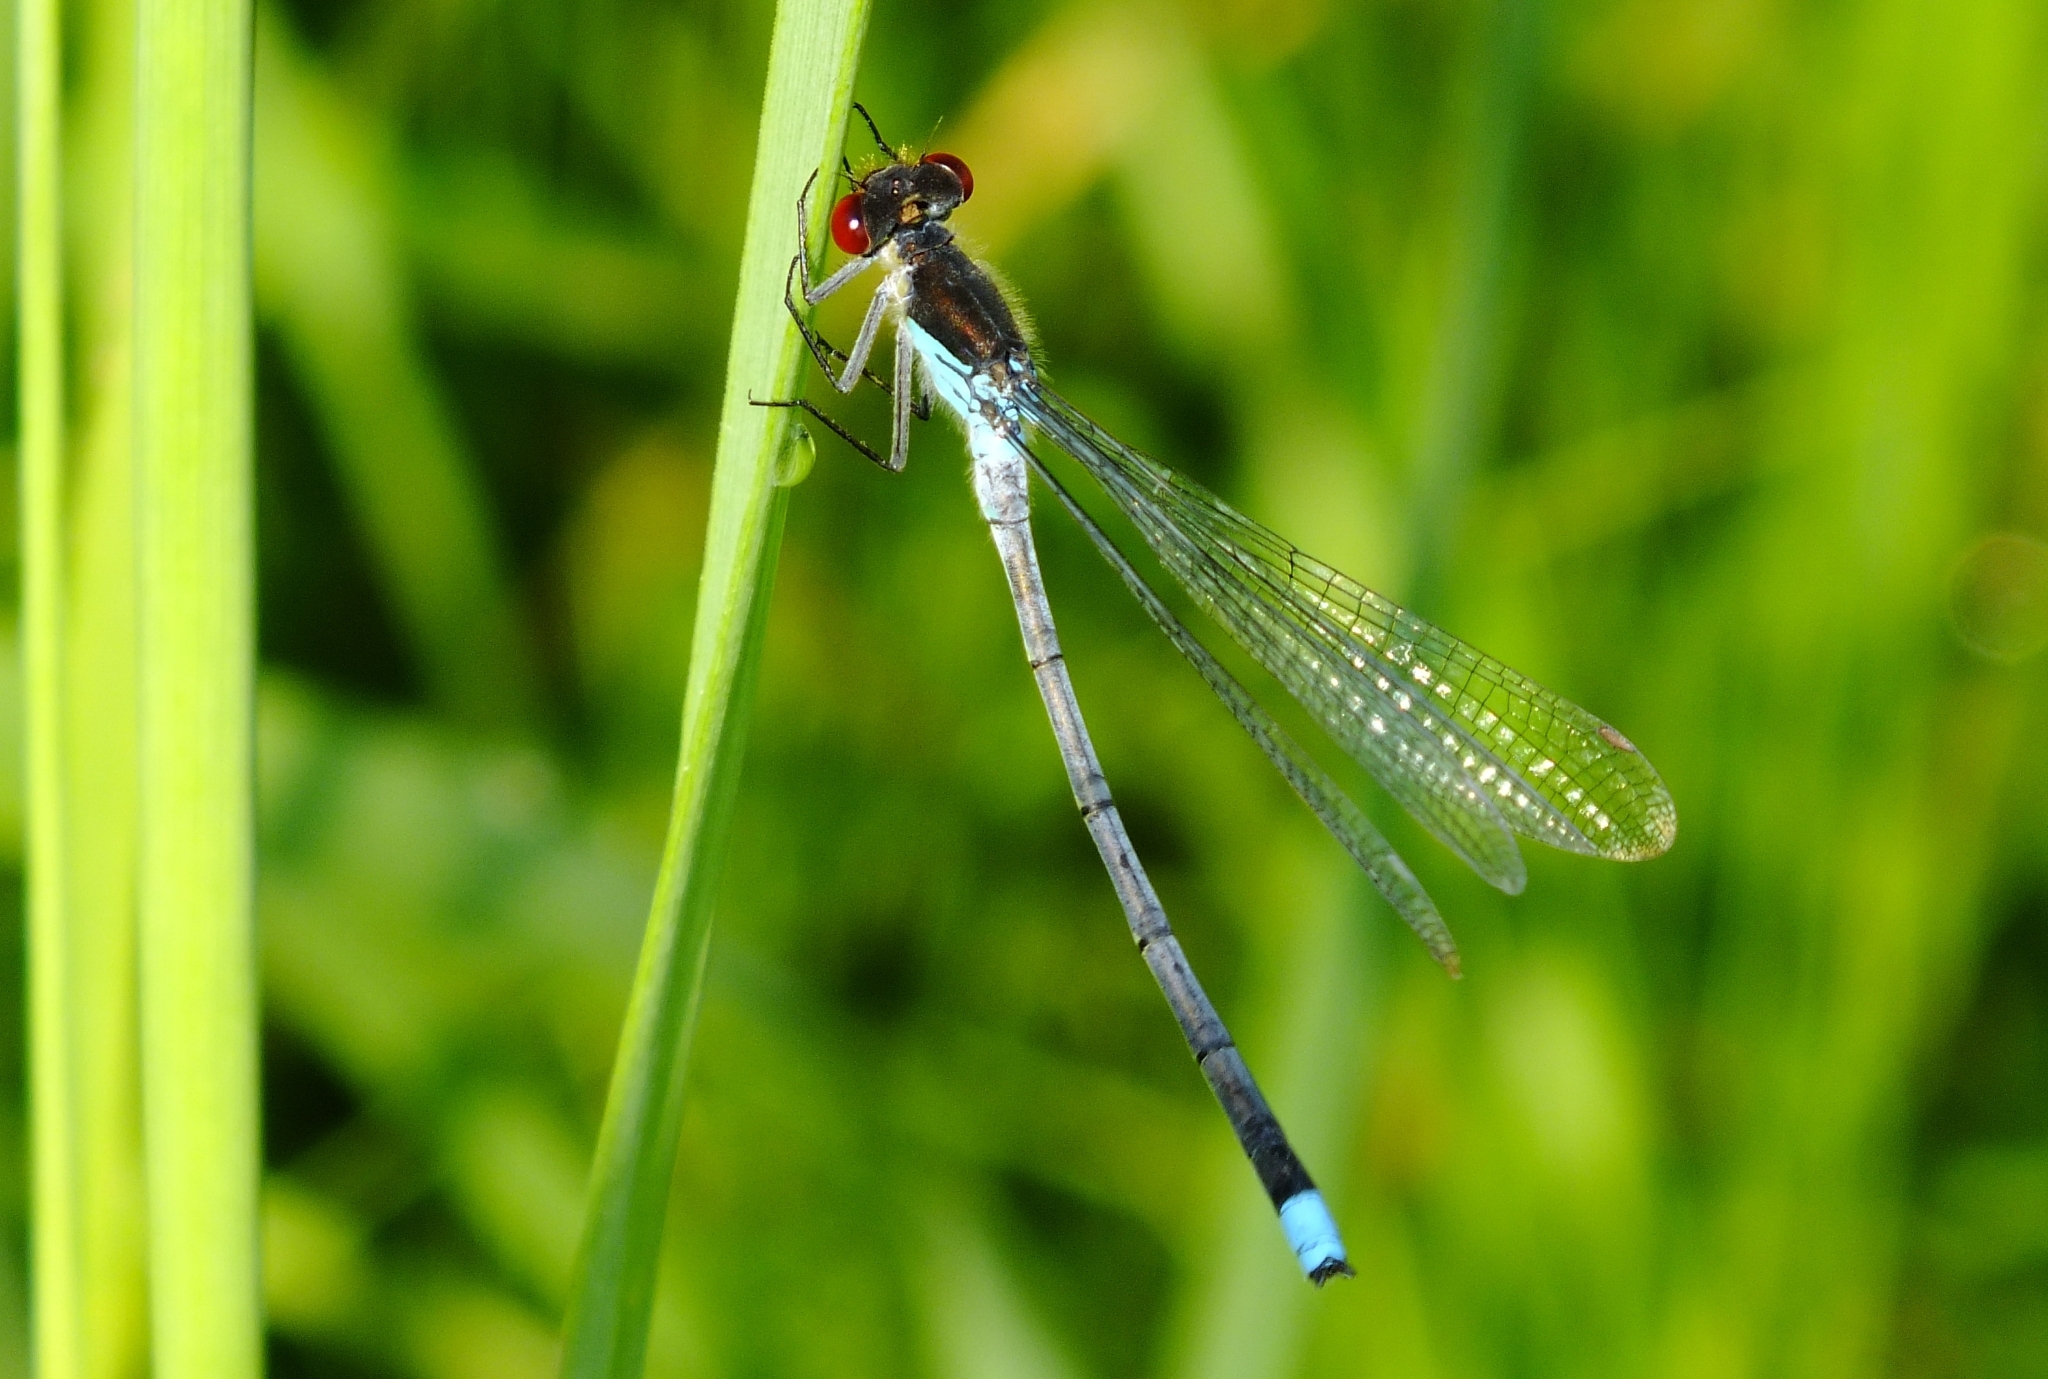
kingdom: Animalia
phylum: Arthropoda
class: Insecta
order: Odonata
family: Coenagrionidae
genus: Erythromma
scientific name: Erythromma najas
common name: Red-eyed damselfly
